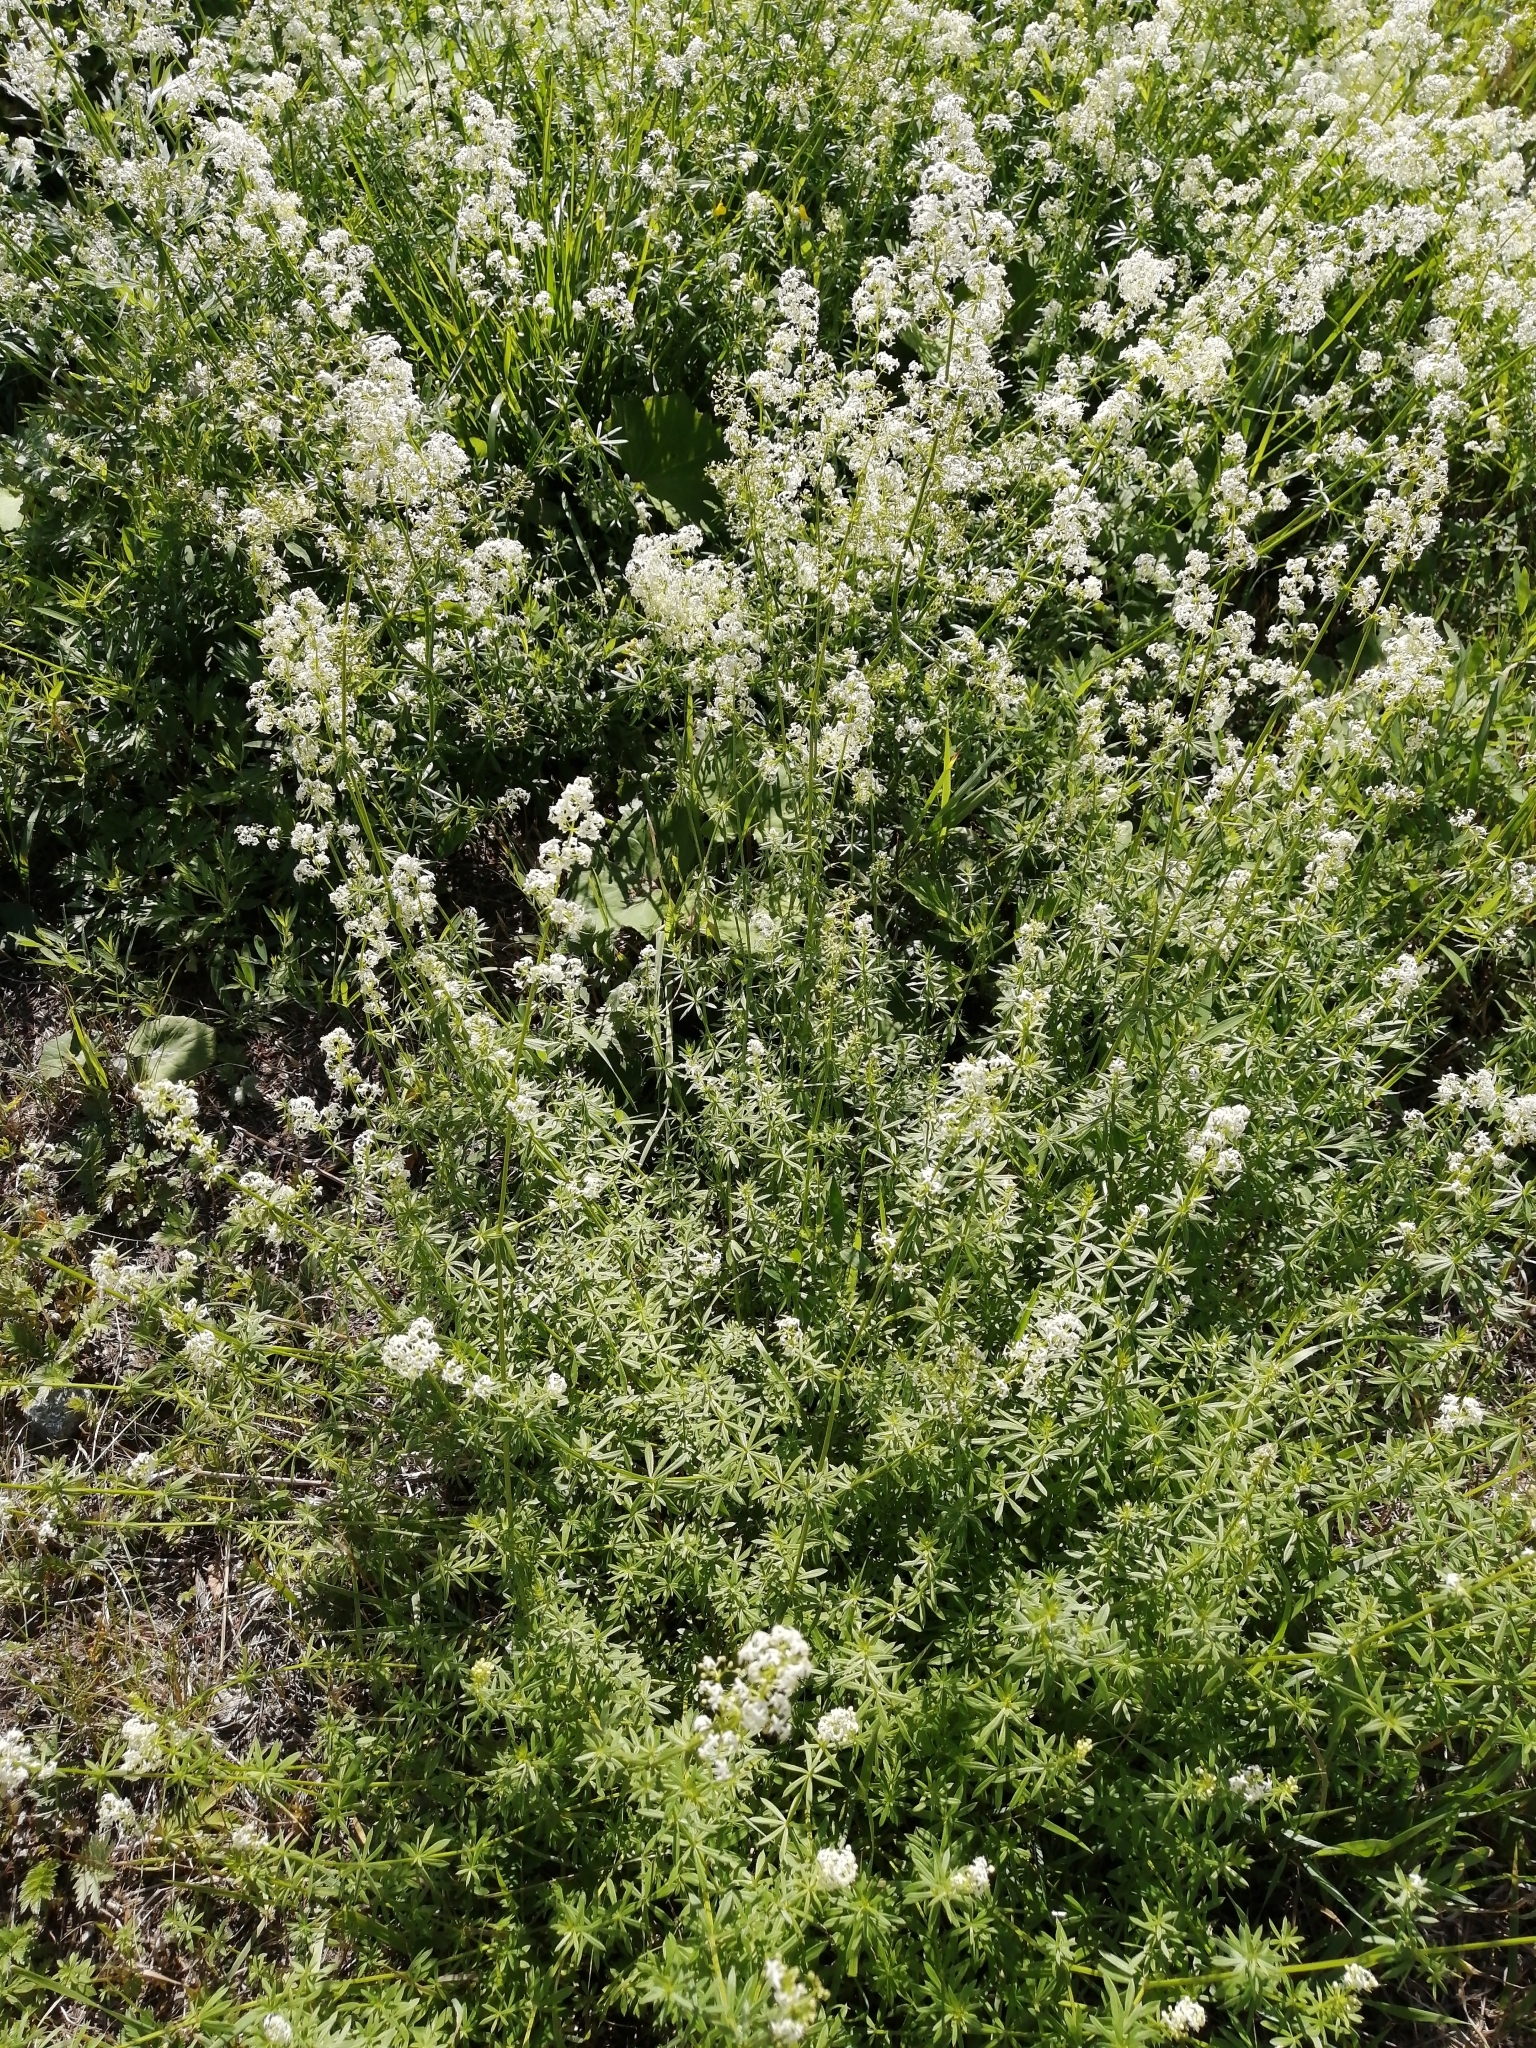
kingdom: Plantae
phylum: Tracheophyta
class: Magnoliopsida
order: Gentianales
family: Rubiaceae
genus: Galium
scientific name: Galium mollugo
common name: Hedge bedstraw
